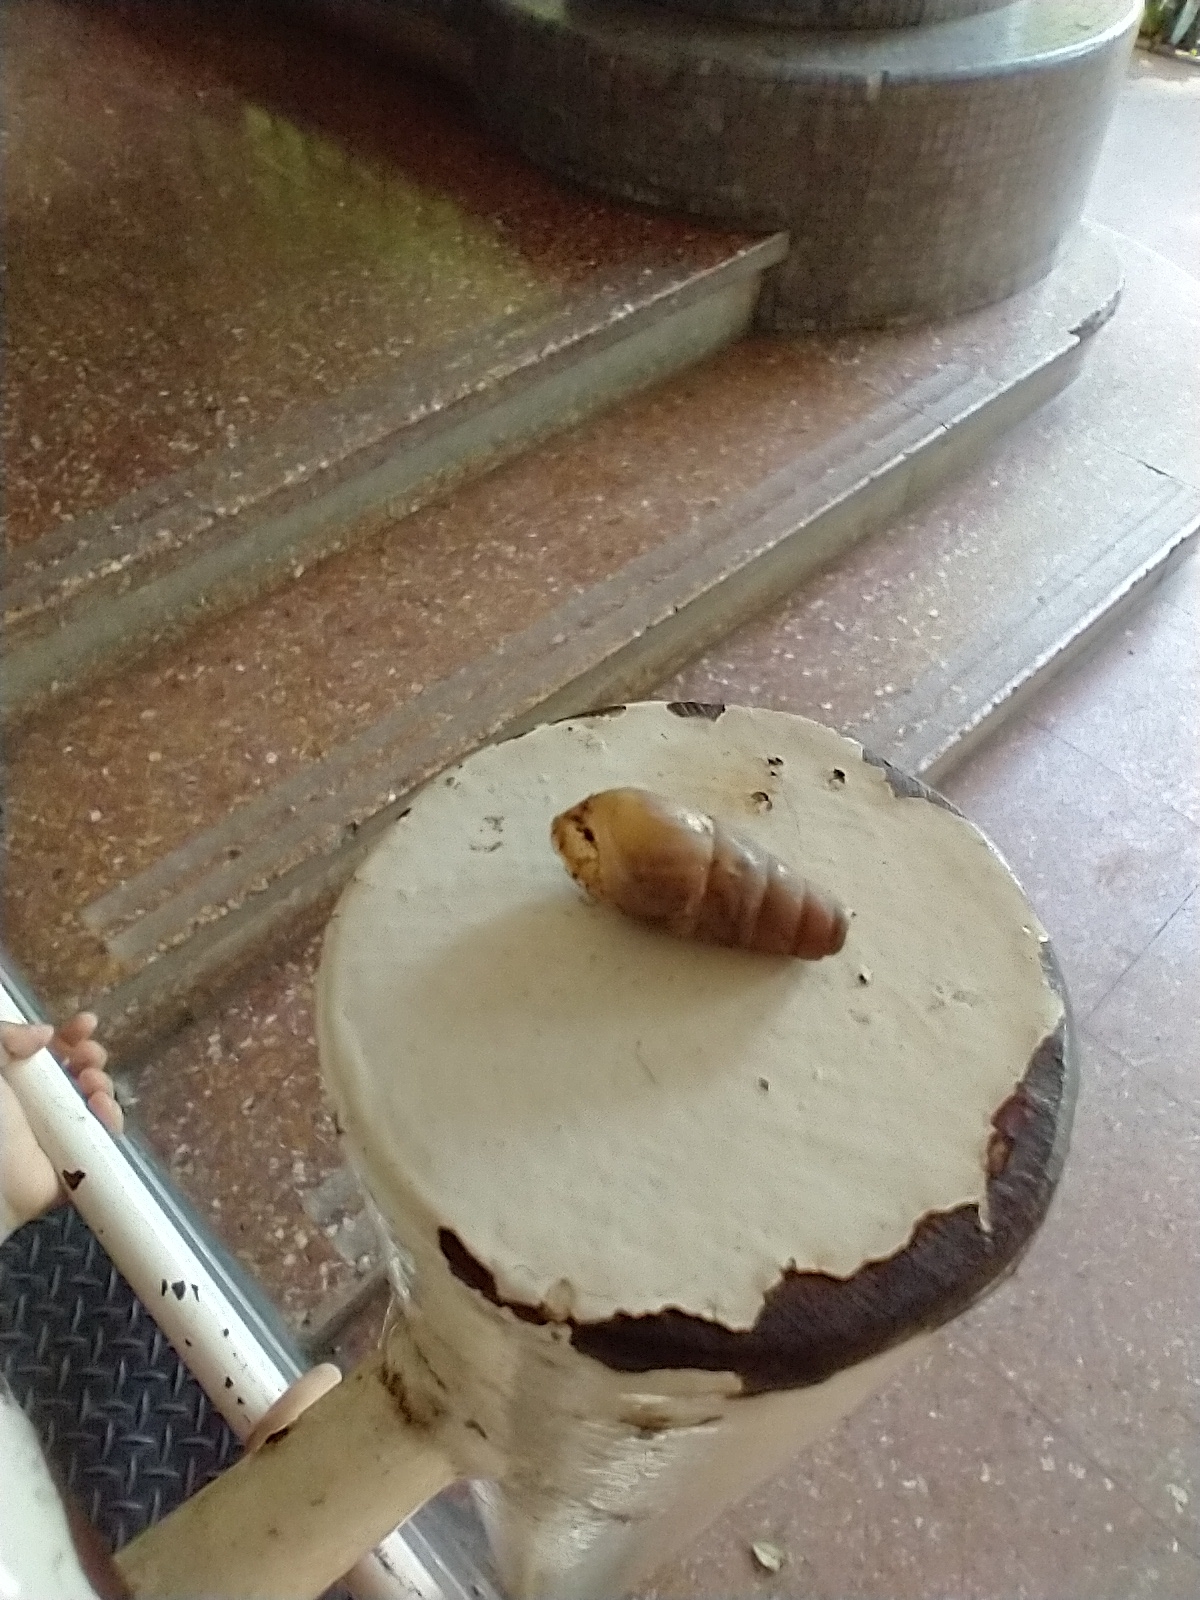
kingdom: Animalia
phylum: Mollusca
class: Gastropoda
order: Stylommatophora
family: Achatinidae
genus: Rumina
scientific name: Rumina decollata
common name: Decollate snail
